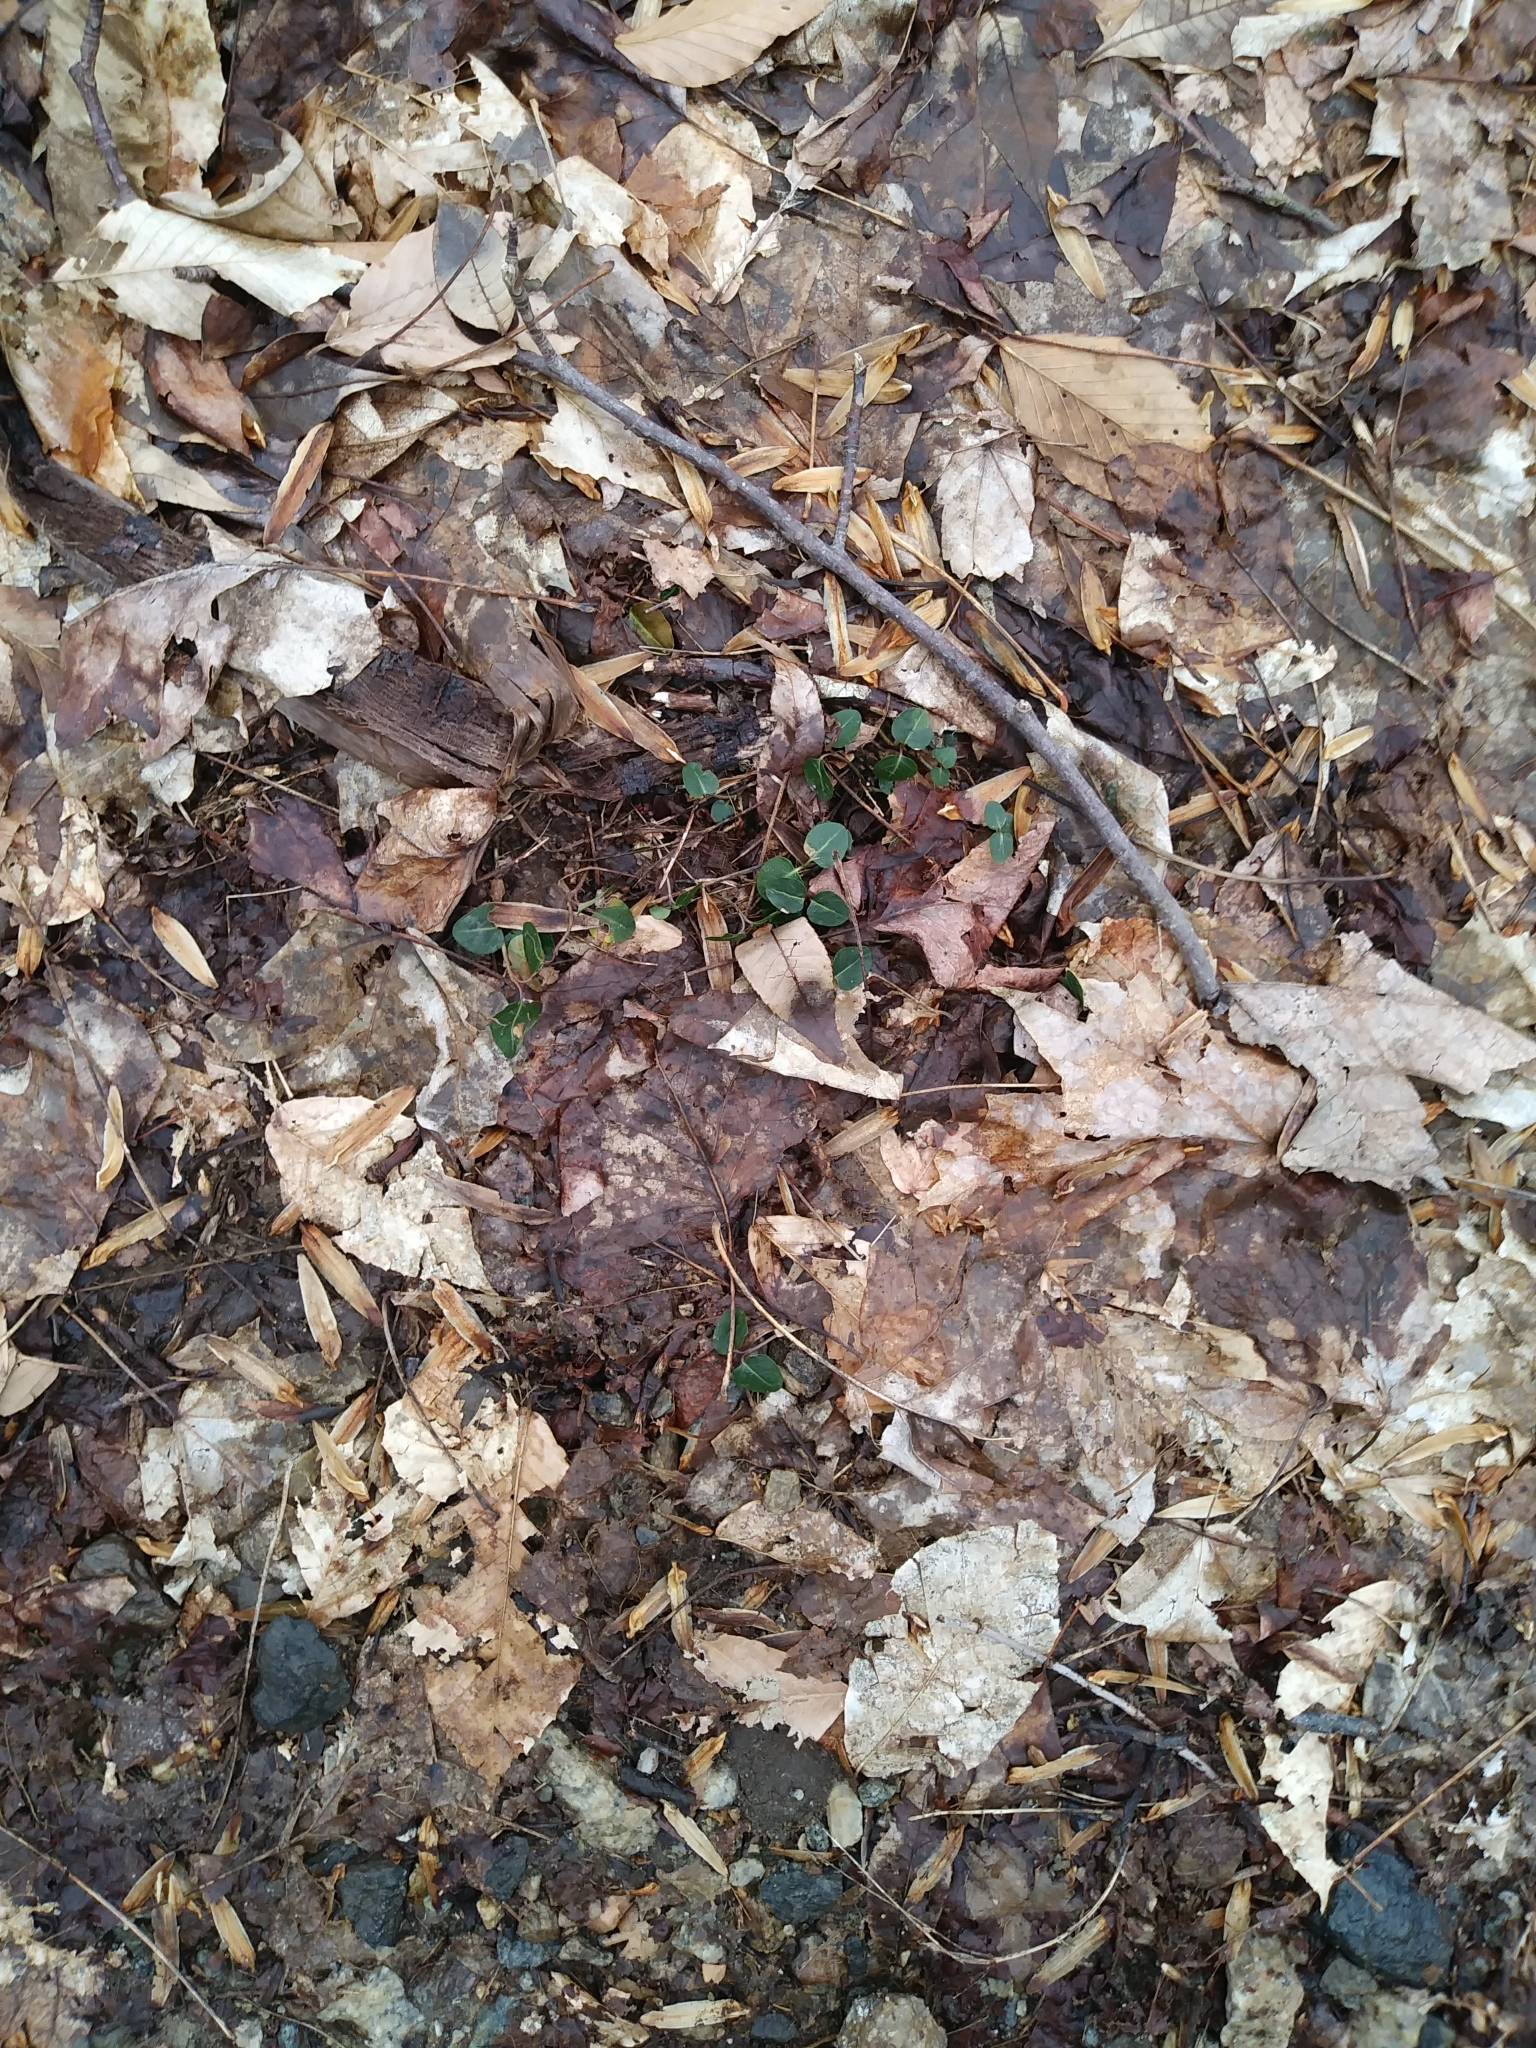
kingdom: Plantae
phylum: Tracheophyta
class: Magnoliopsida
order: Gentianales
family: Rubiaceae
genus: Mitchella
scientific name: Mitchella repens
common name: Partridge-berry
